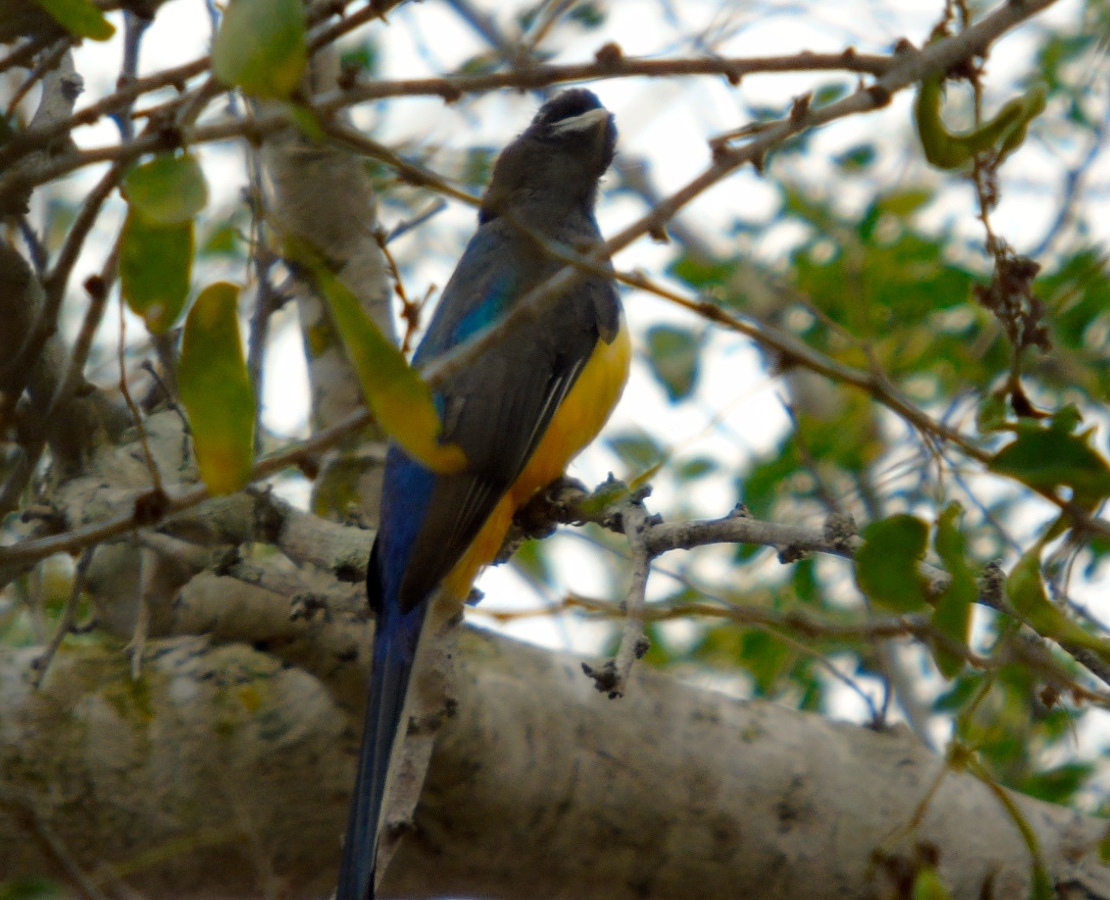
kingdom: Animalia
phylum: Chordata
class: Aves
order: Trogoniformes
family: Trogonidae
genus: Trogon
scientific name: Trogon citreolus
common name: Citreoline trogon
